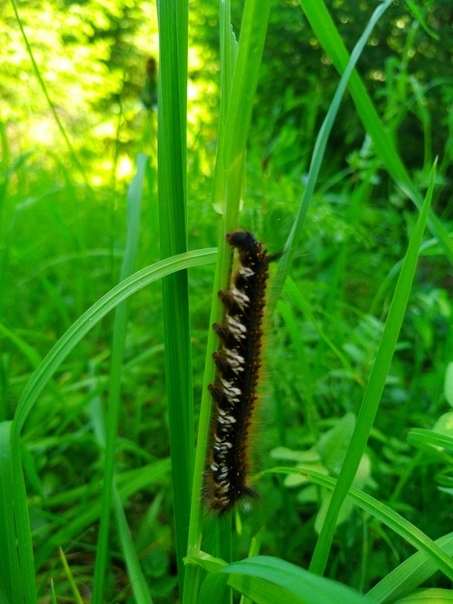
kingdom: Animalia
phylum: Arthropoda
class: Insecta
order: Lepidoptera
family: Lasiocampidae
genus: Euthrix
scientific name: Euthrix potatoria
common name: Drinker
